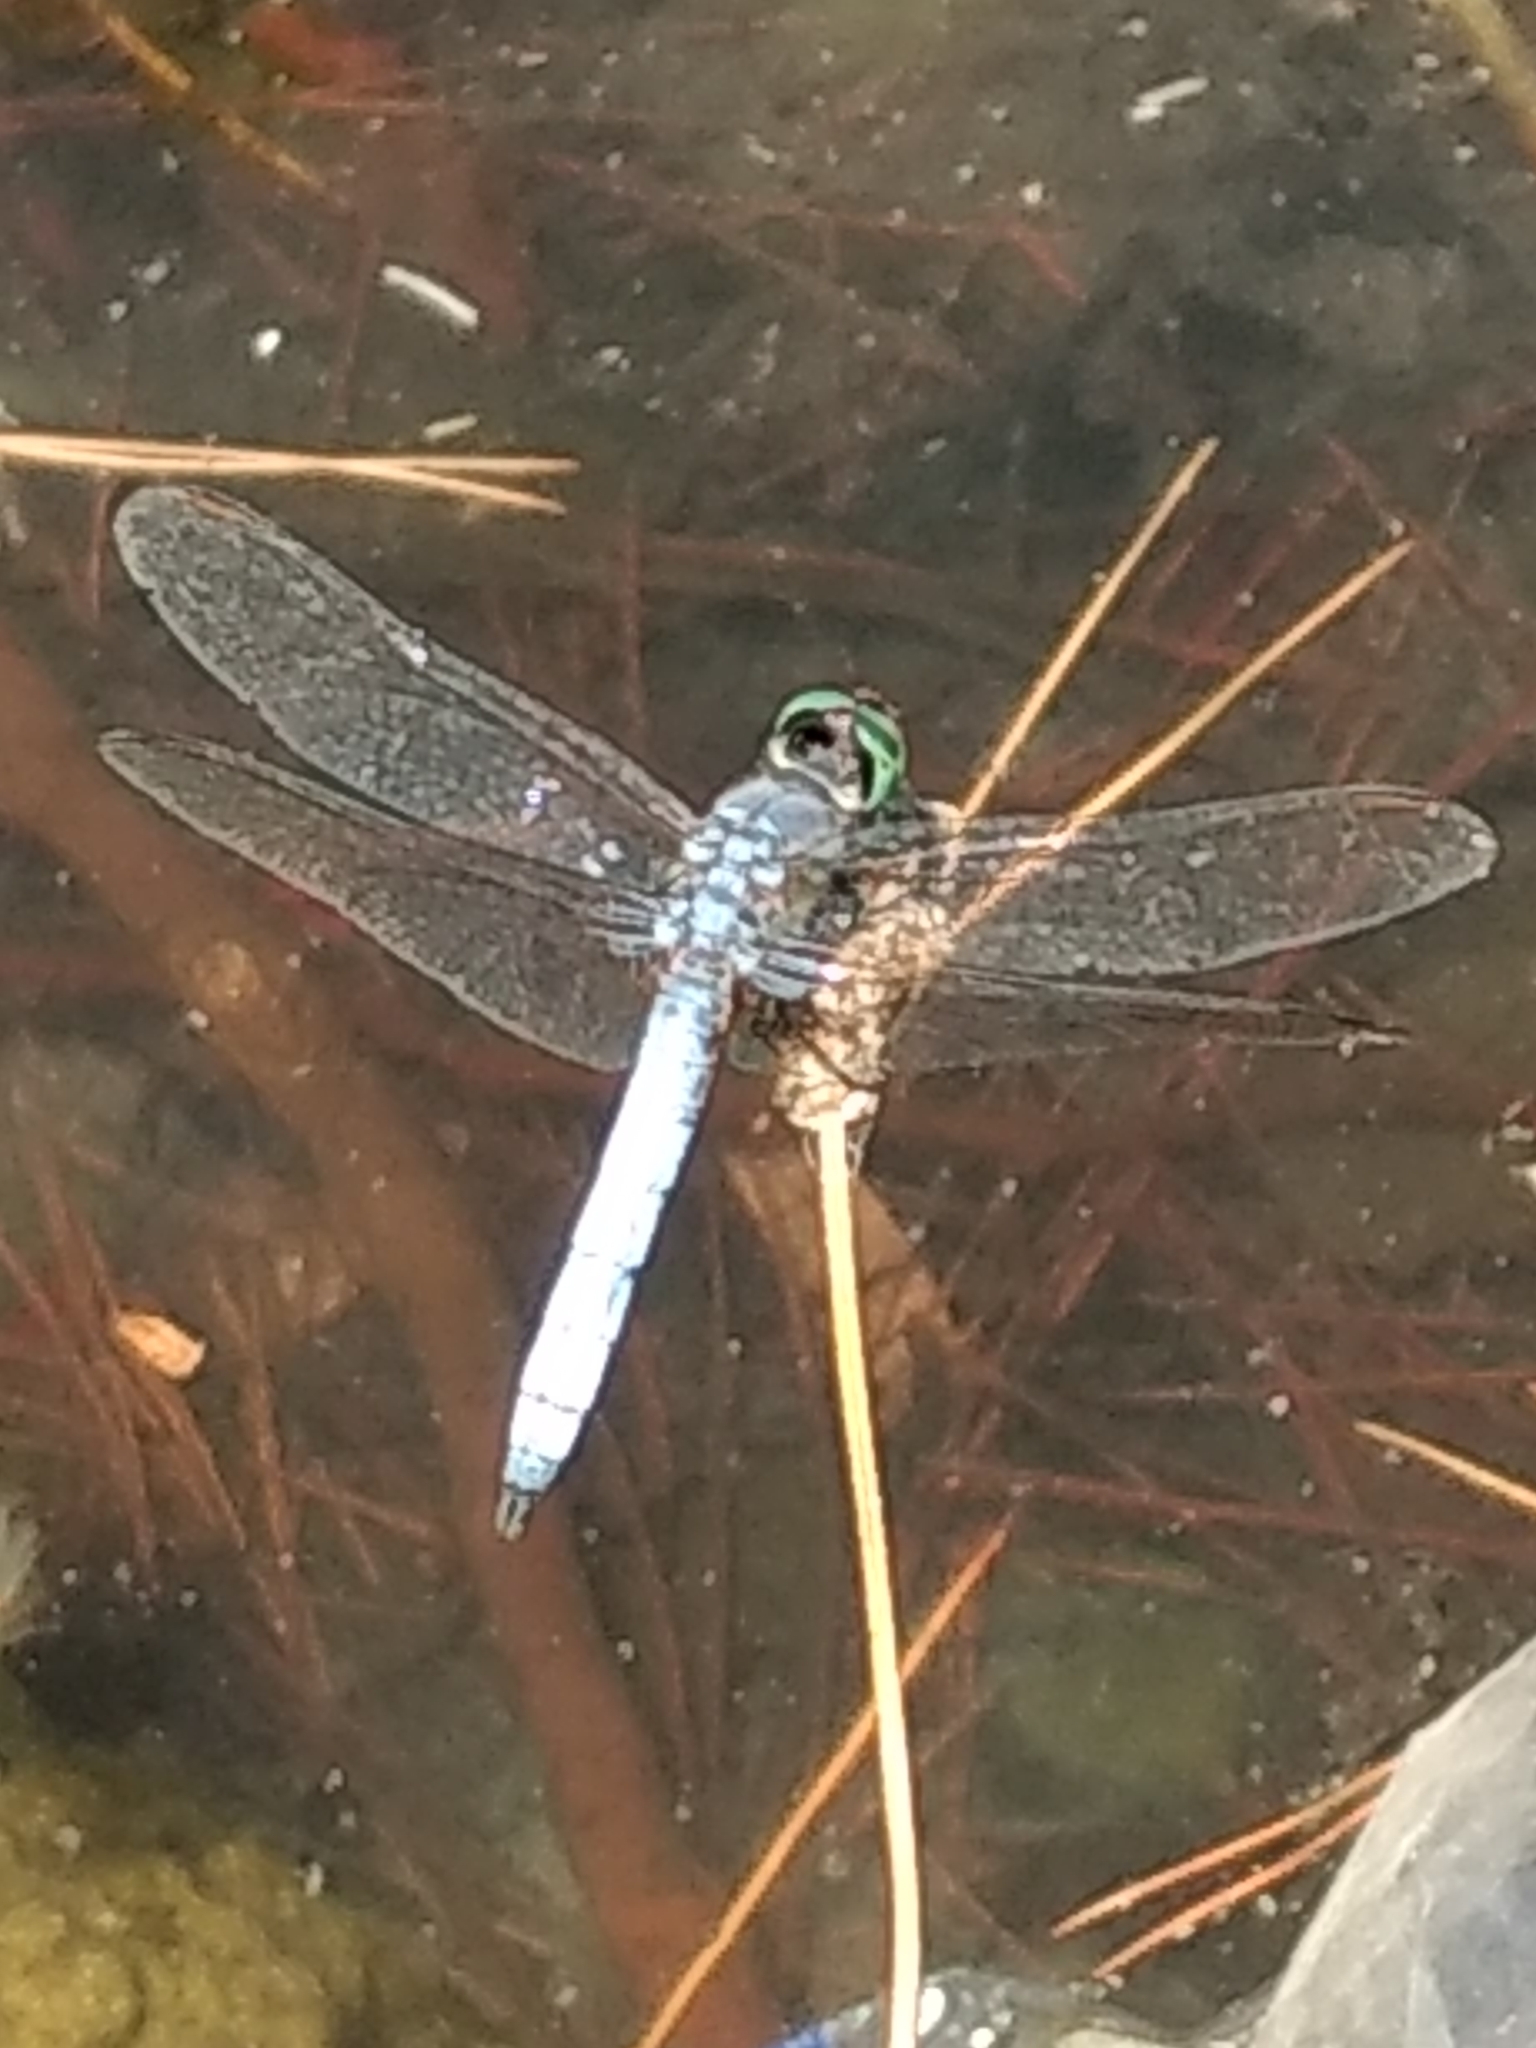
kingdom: Animalia
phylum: Arthropoda
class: Insecta
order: Odonata
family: Libellulidae
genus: Pachydiplax
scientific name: Pachydiplax longipennis
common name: Blue dasher
